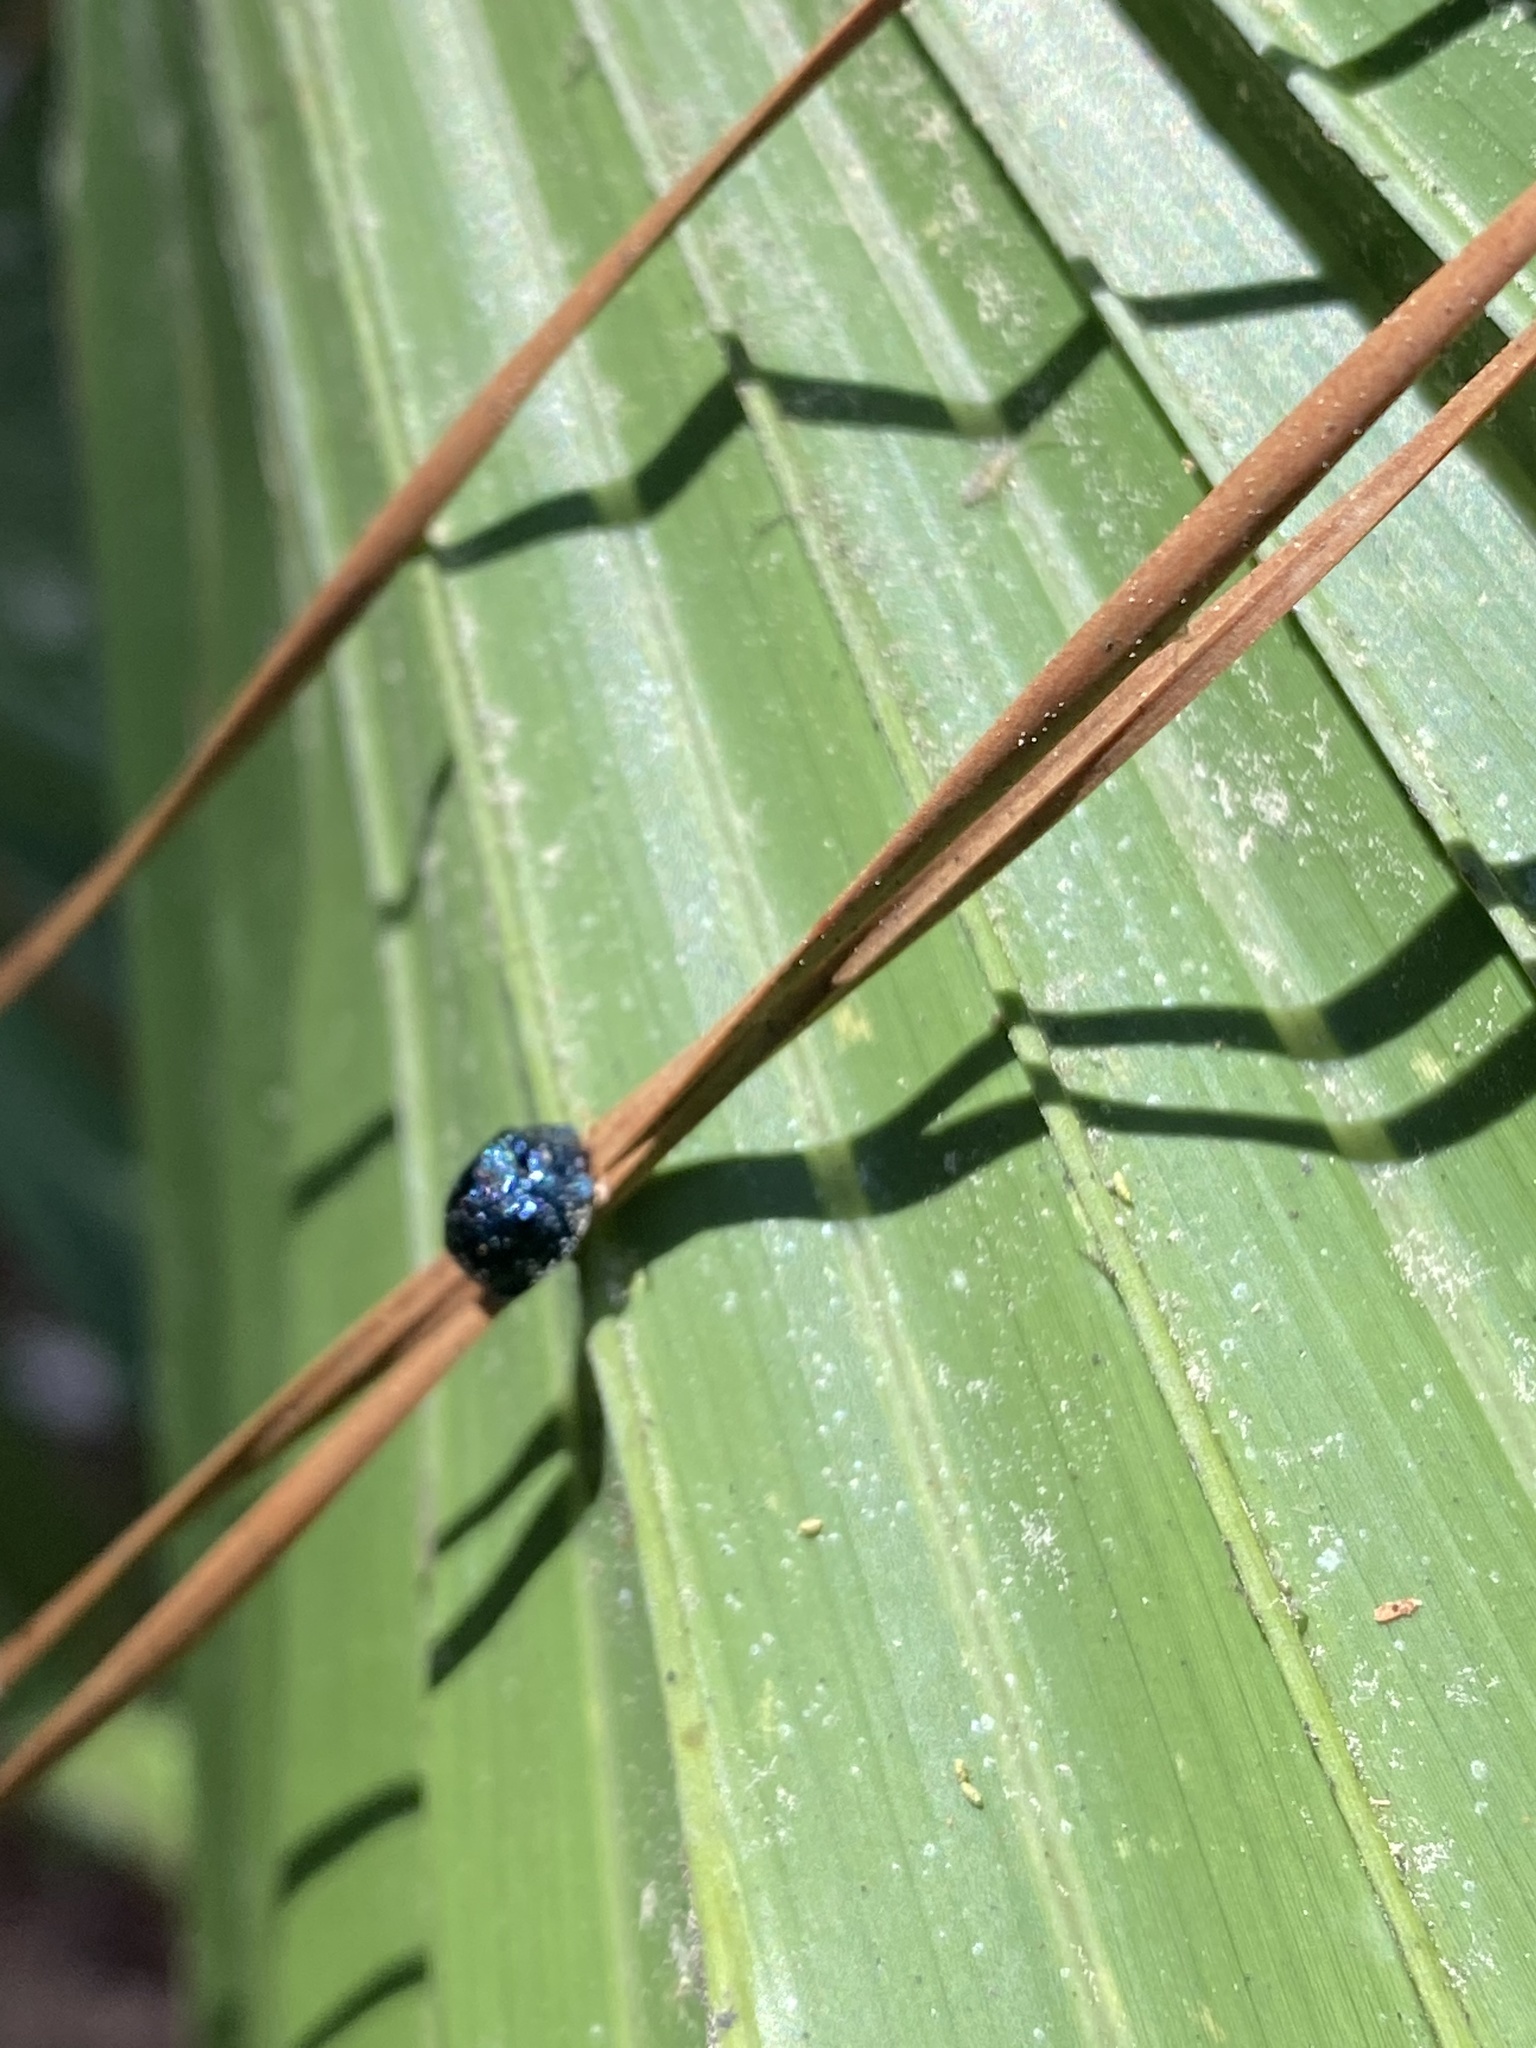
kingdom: Animalia
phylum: Arthropoda
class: Insecta
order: Coleoptera
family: Chrysomelidae
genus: Hemisphaerota
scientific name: Hemisphaerota cyanea
